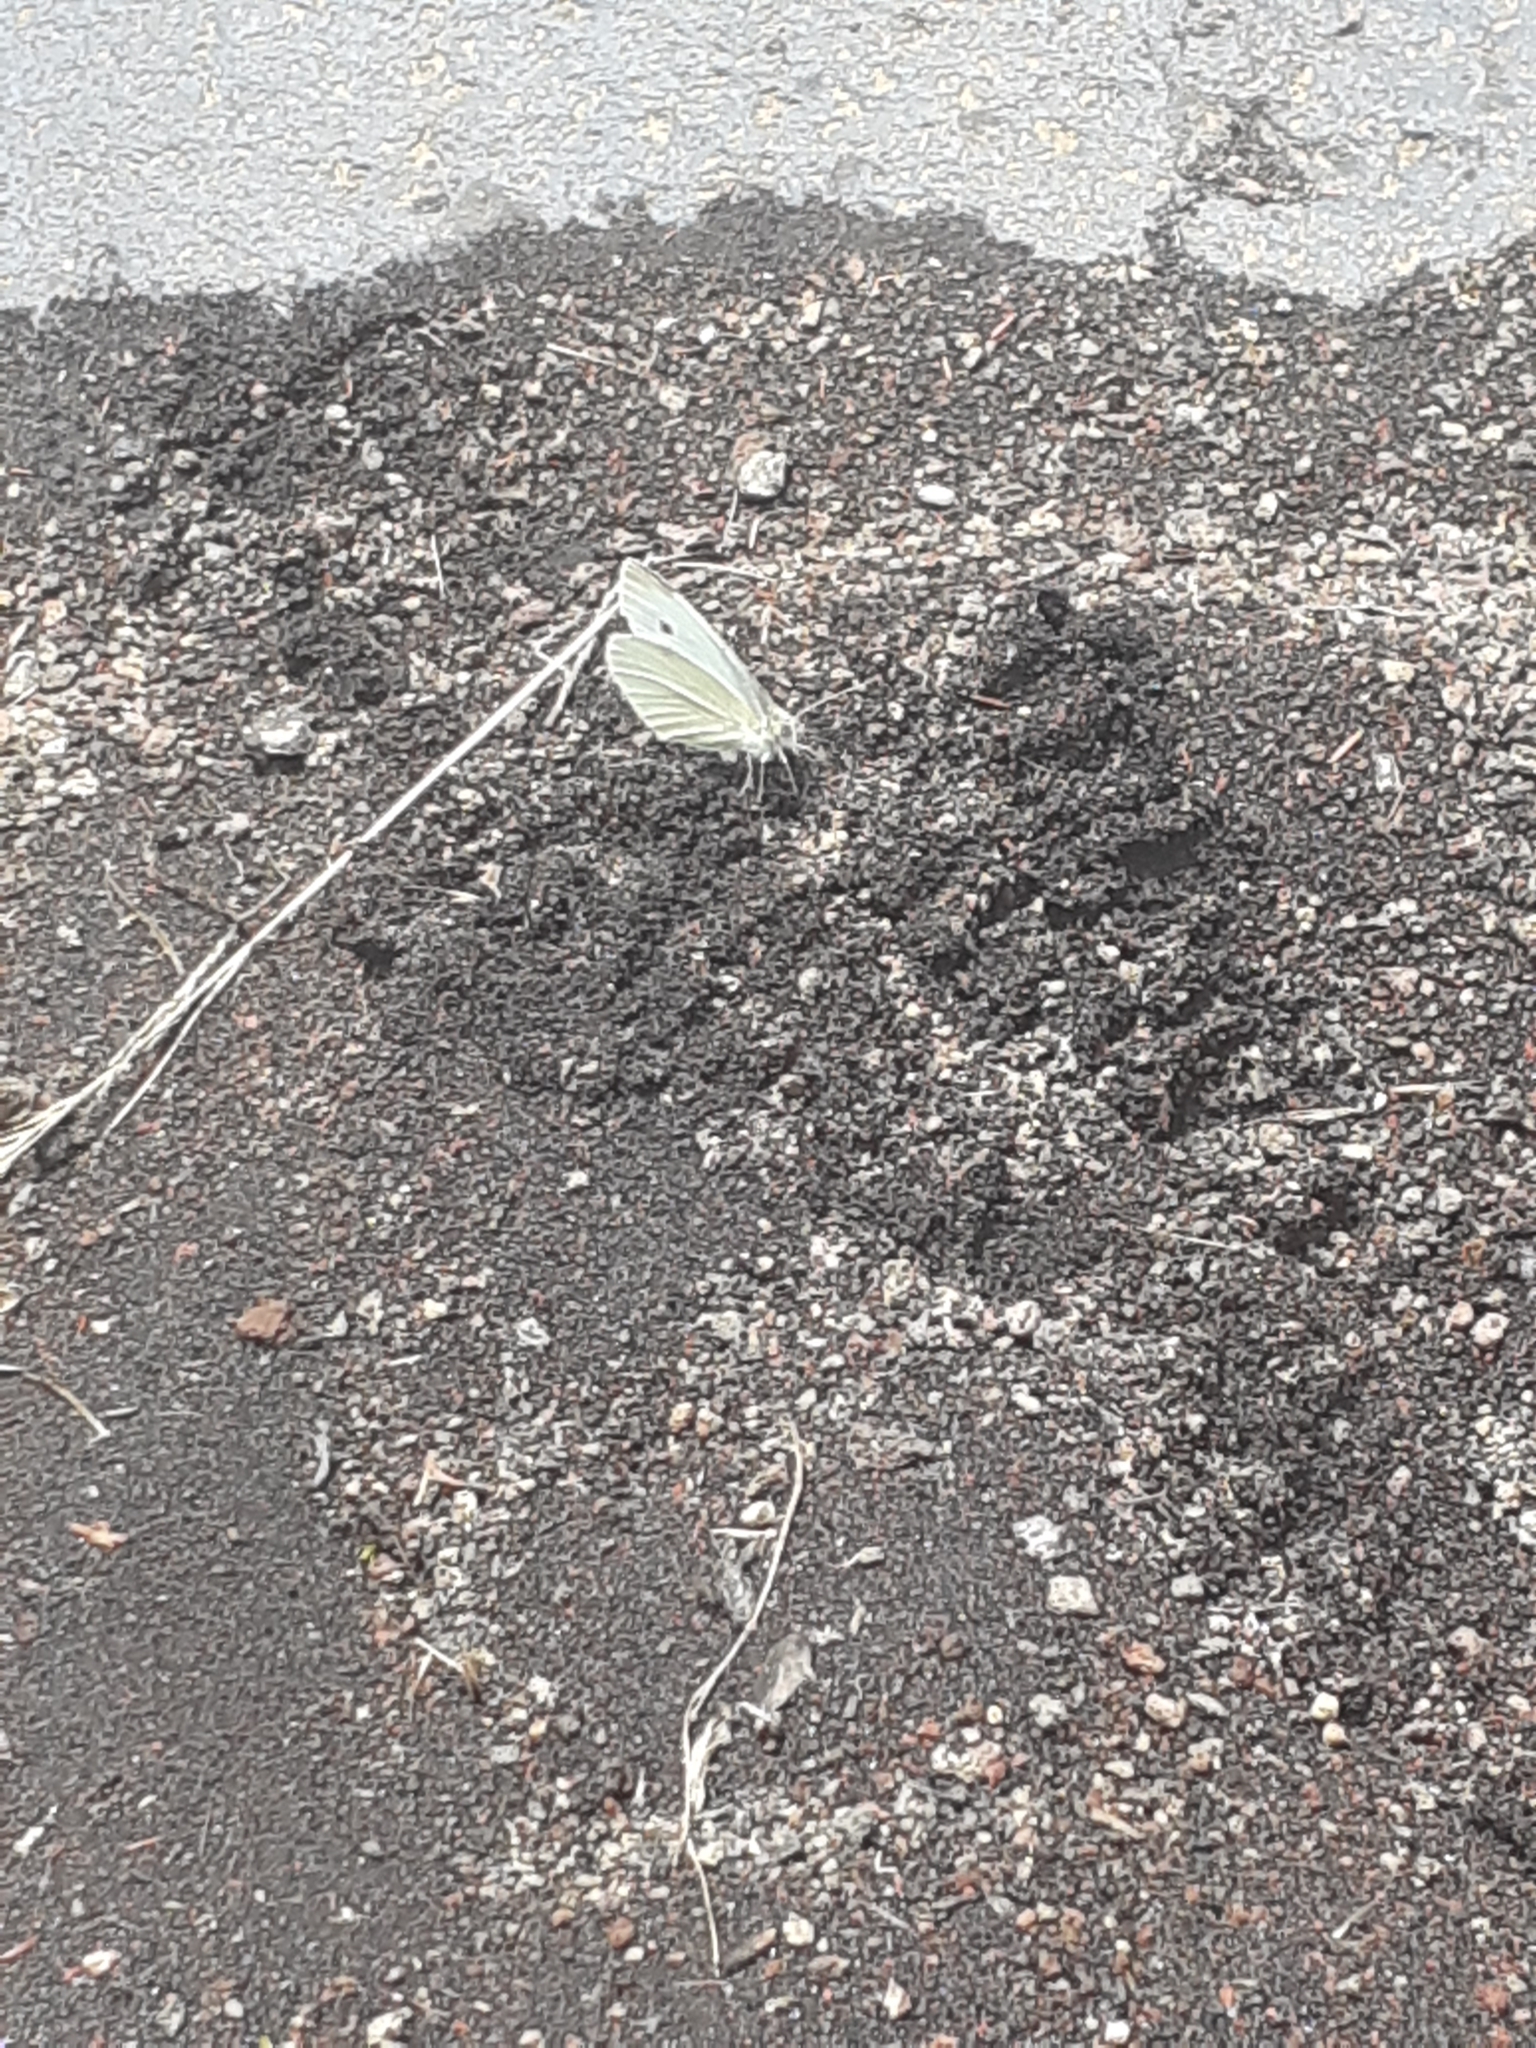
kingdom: Animalia
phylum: Arthropoda
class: Insecta
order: Lepidoptera
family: Pieridae
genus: Pieris
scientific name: Pieris rapae
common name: Small white
